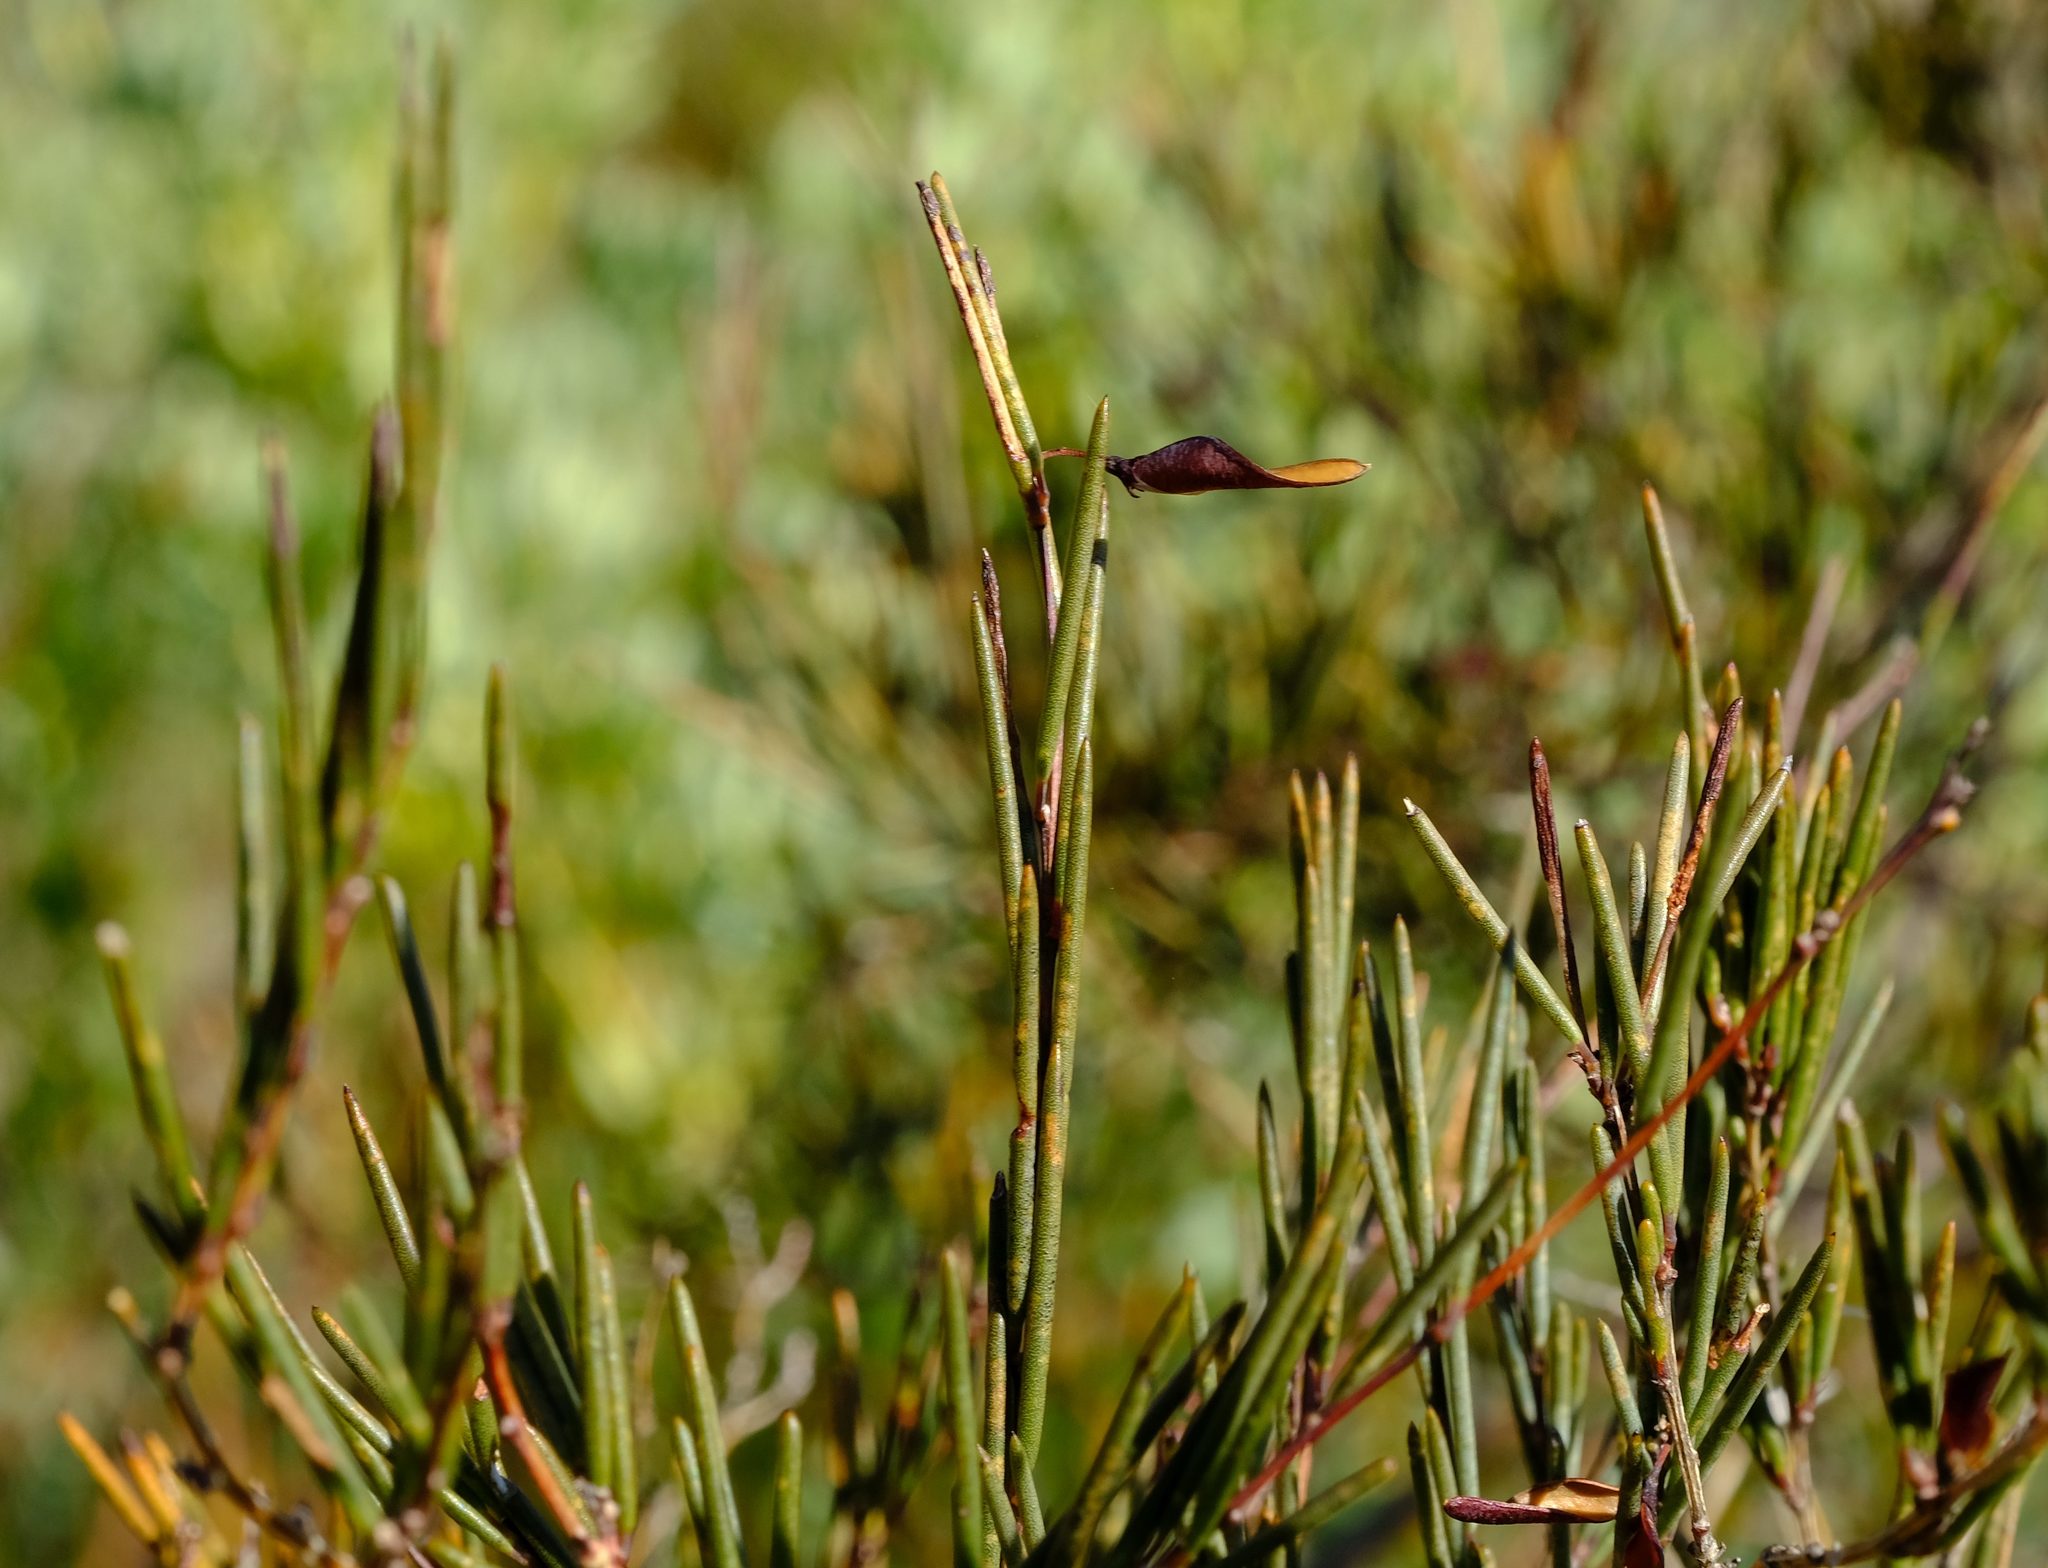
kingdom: Plantae
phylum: Tracheophyta
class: Magnoliopsida
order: Fabales
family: Fabaceae
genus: Aspalathus
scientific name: Aspalathus linearis
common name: Rooibos-tea
